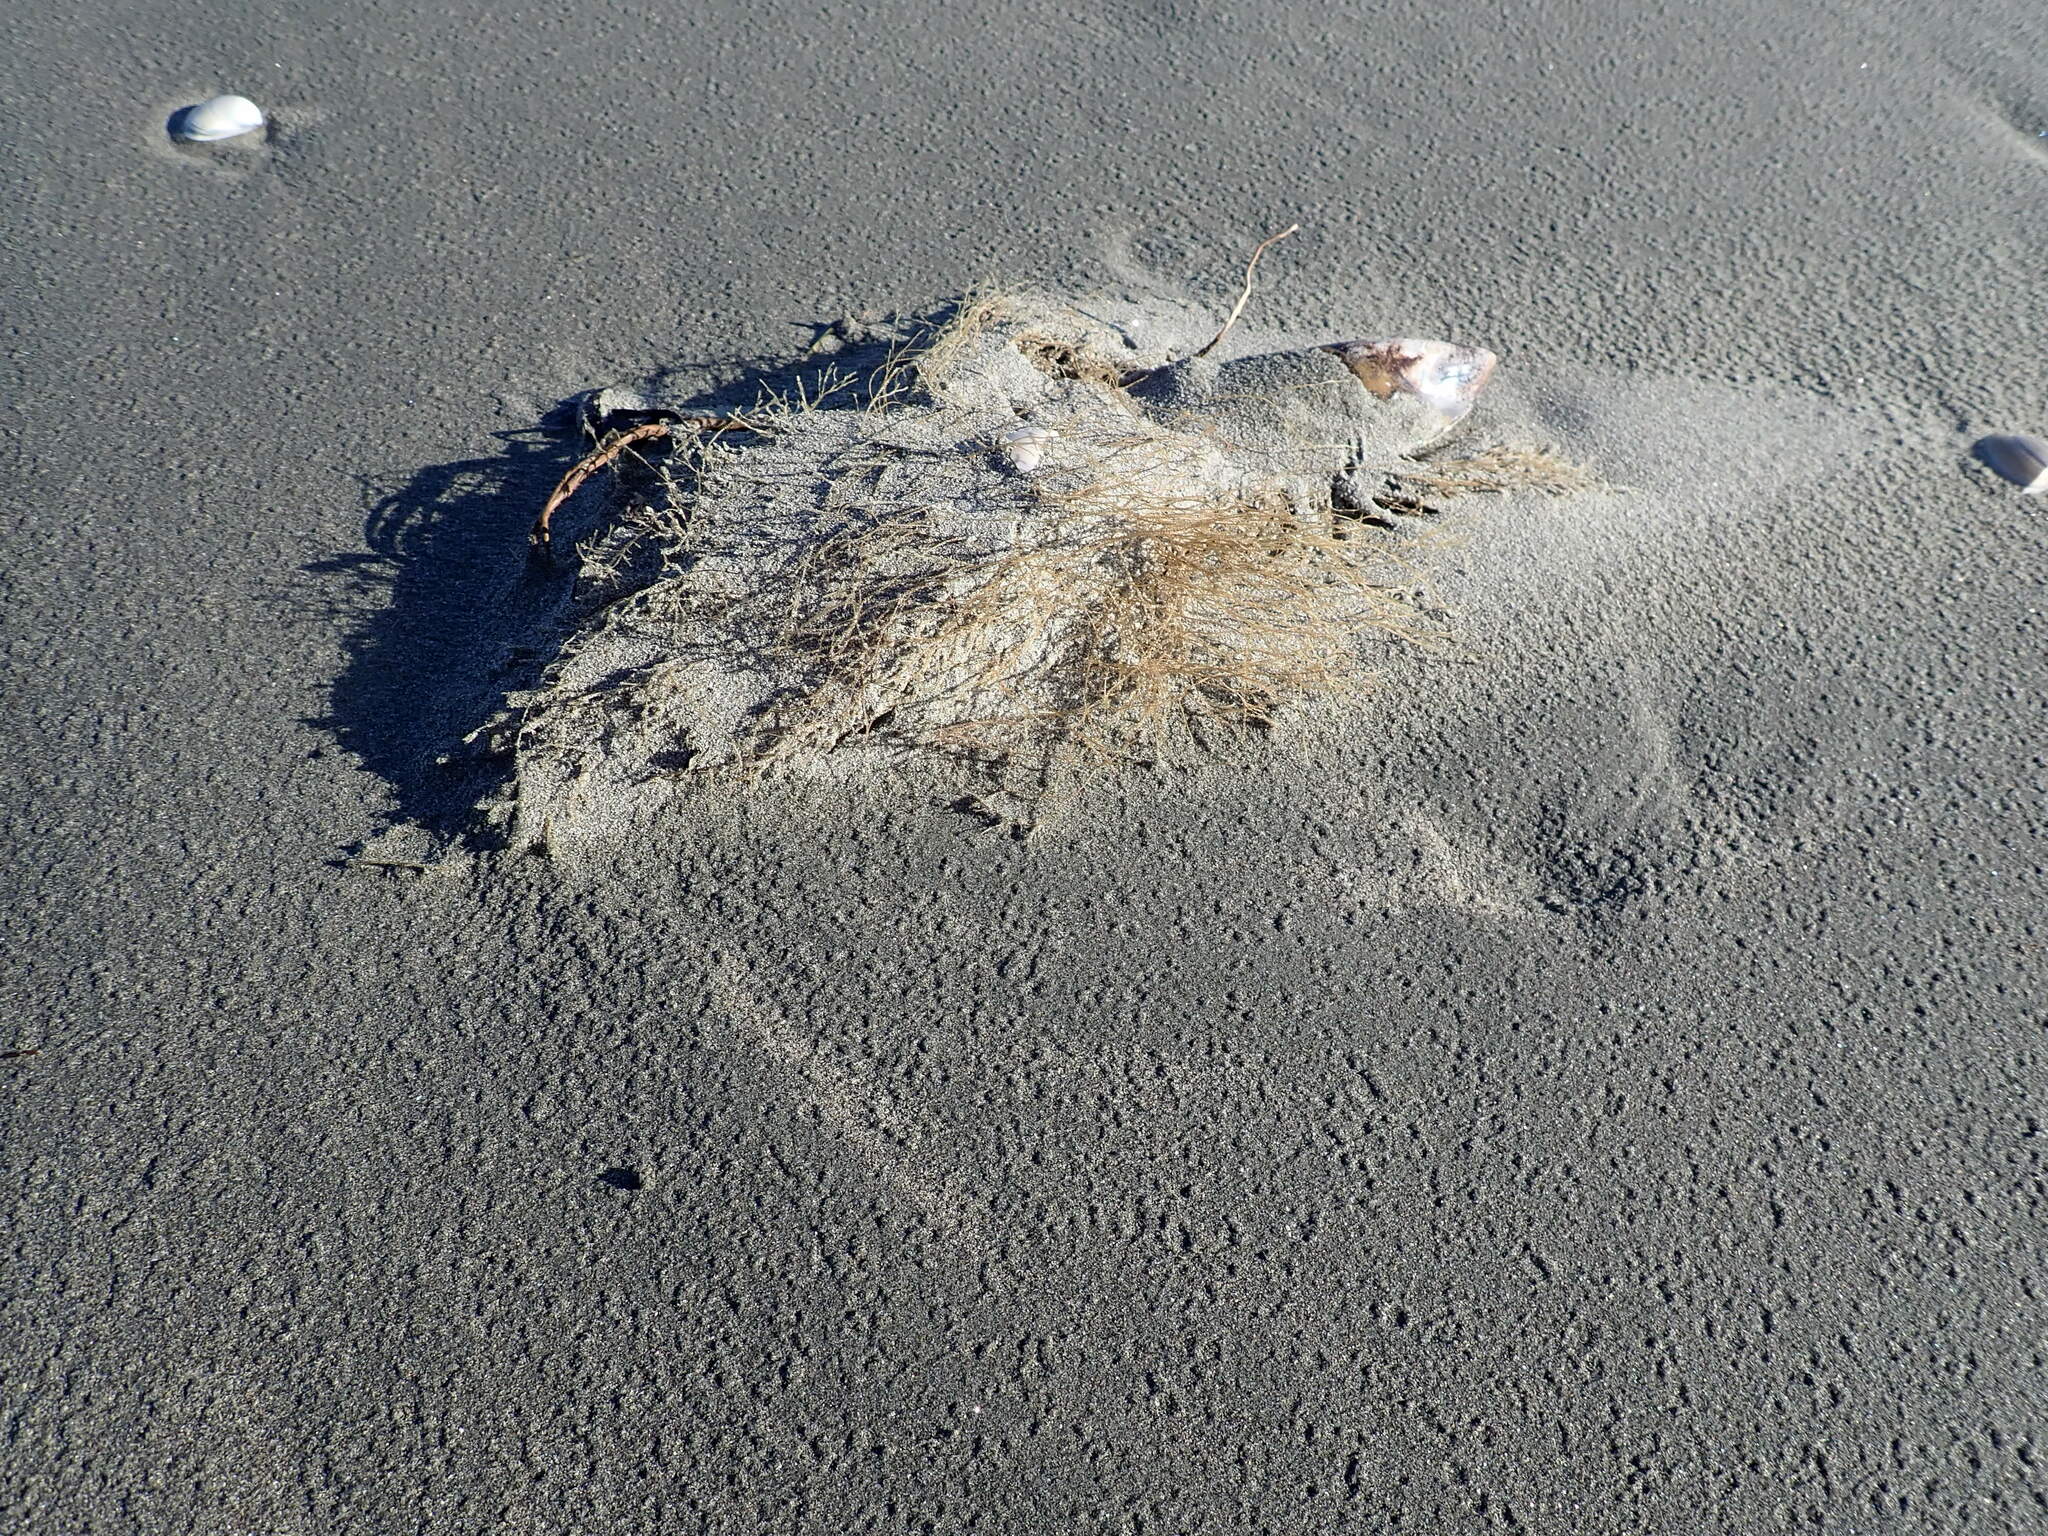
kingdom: Animalia
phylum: Cnidaria
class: Hydrozoa
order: Leptothecata
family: Sertulariidae
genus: Amphisbetia
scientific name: Amphisbetia bispinosa
